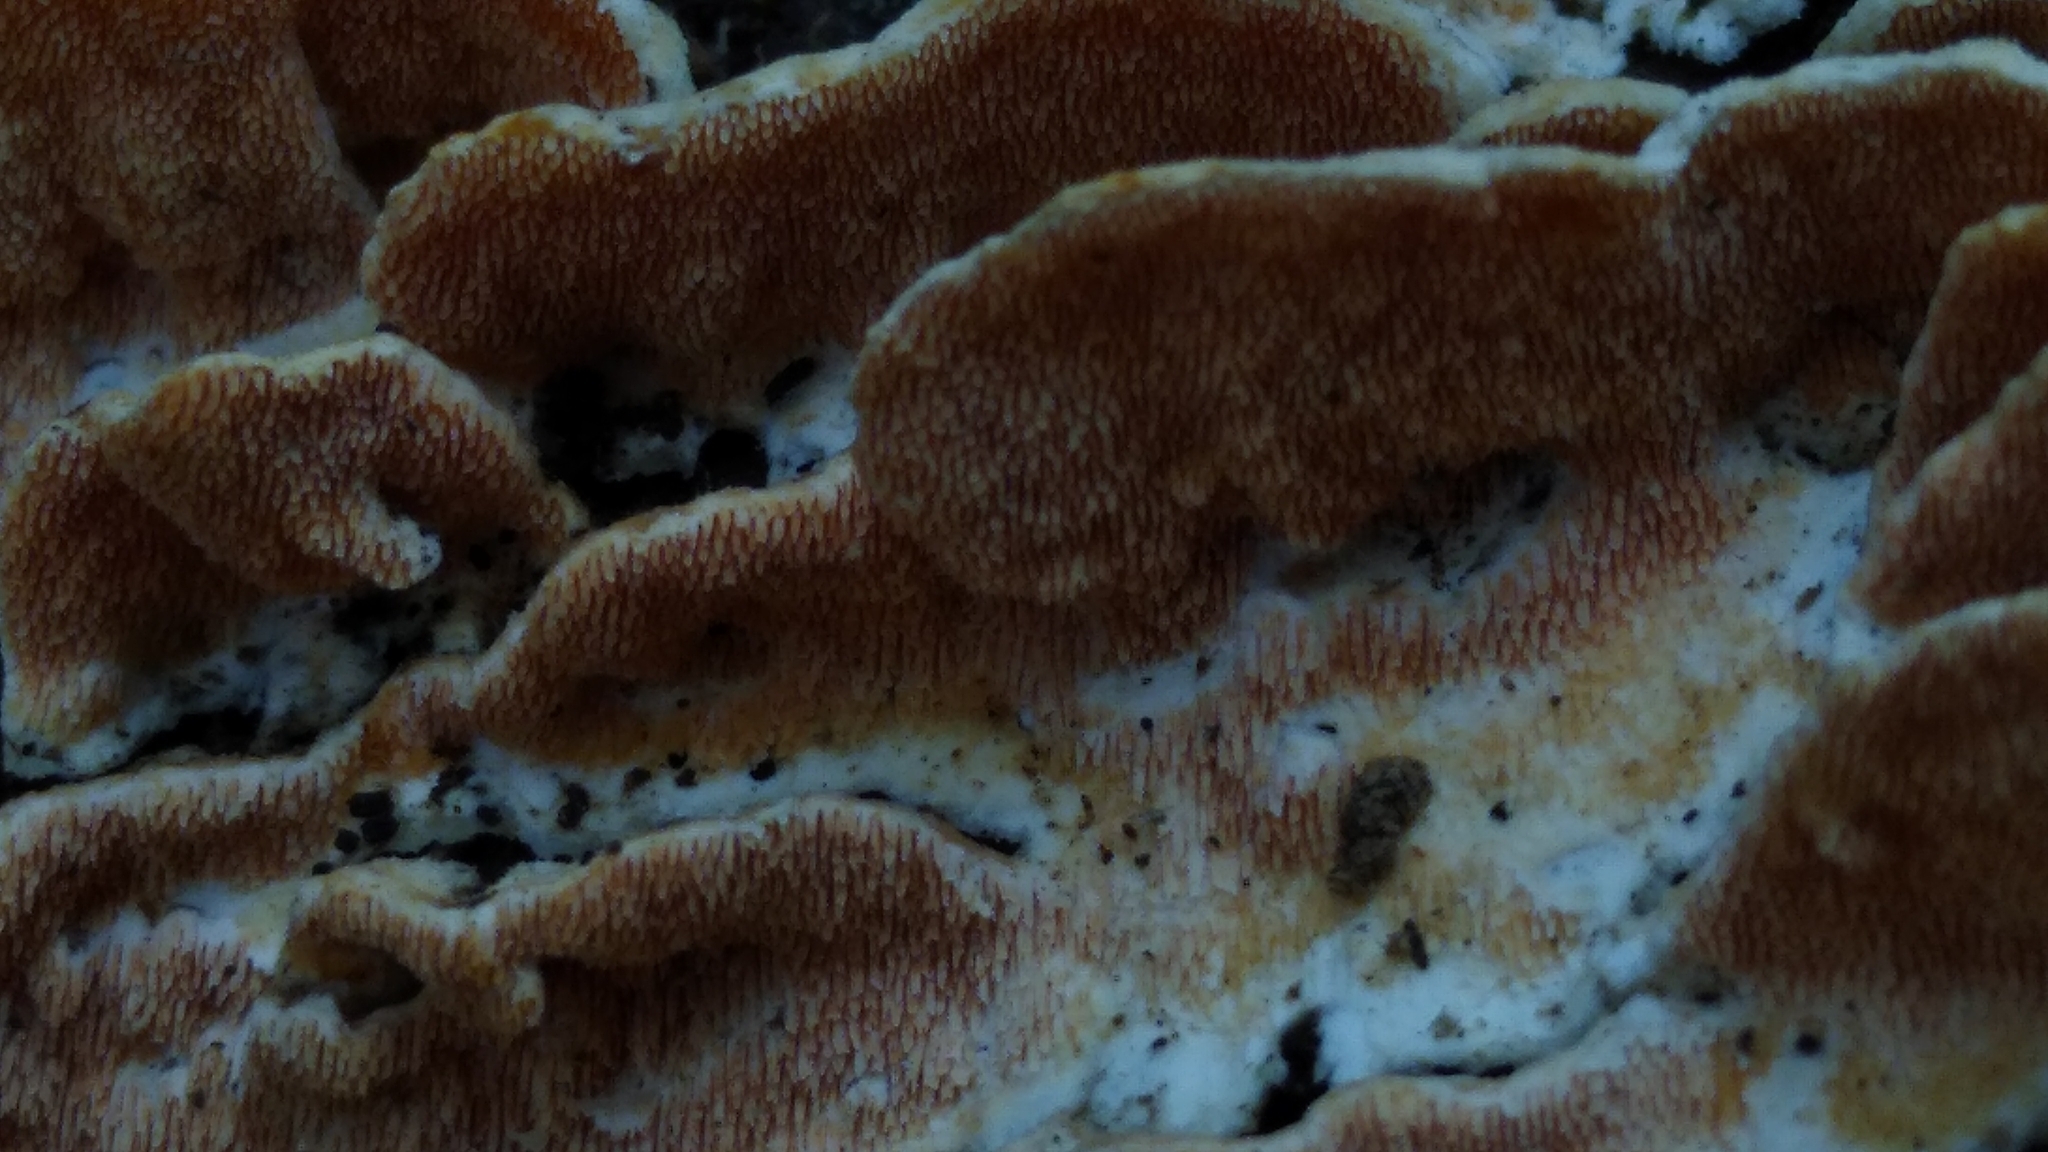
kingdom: Fungi
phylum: Basidiomycota
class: Agaricomycetes
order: Polyporales
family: Steccherinaceae
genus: Steccherinum
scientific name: Steccherinum ochraceum
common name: Ochre spreading tooth
